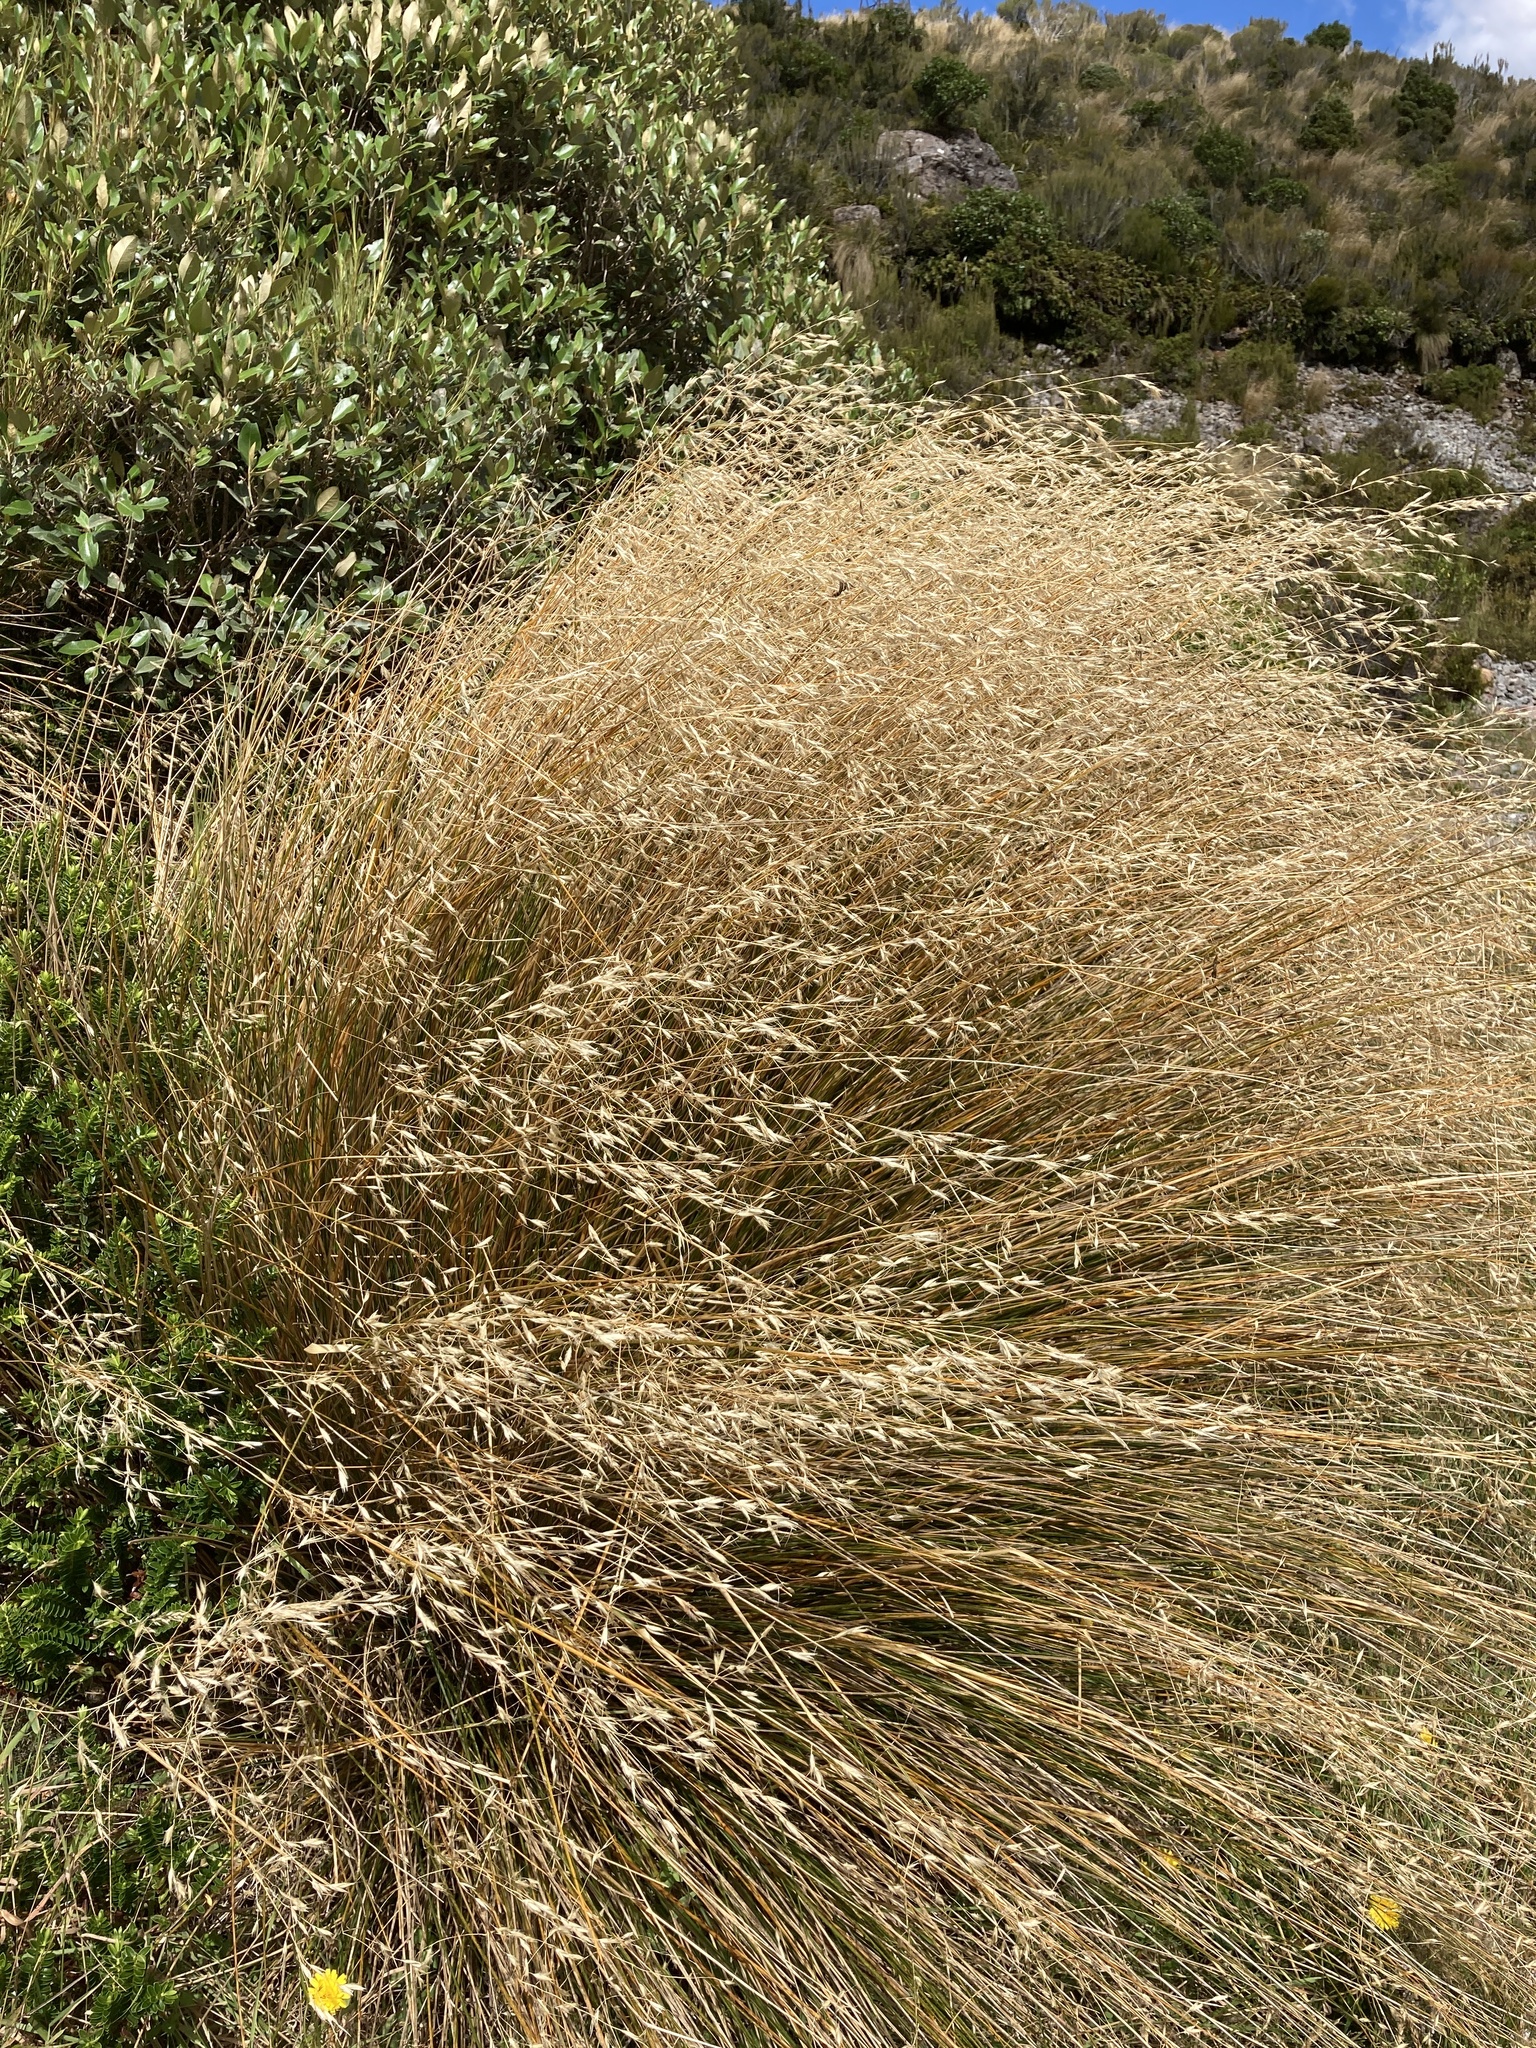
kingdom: Plantae
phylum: Tracheophyta
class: Liliopsida
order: Poales
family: Poaceae
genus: Chionochloa
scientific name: Chionochloa rubra
